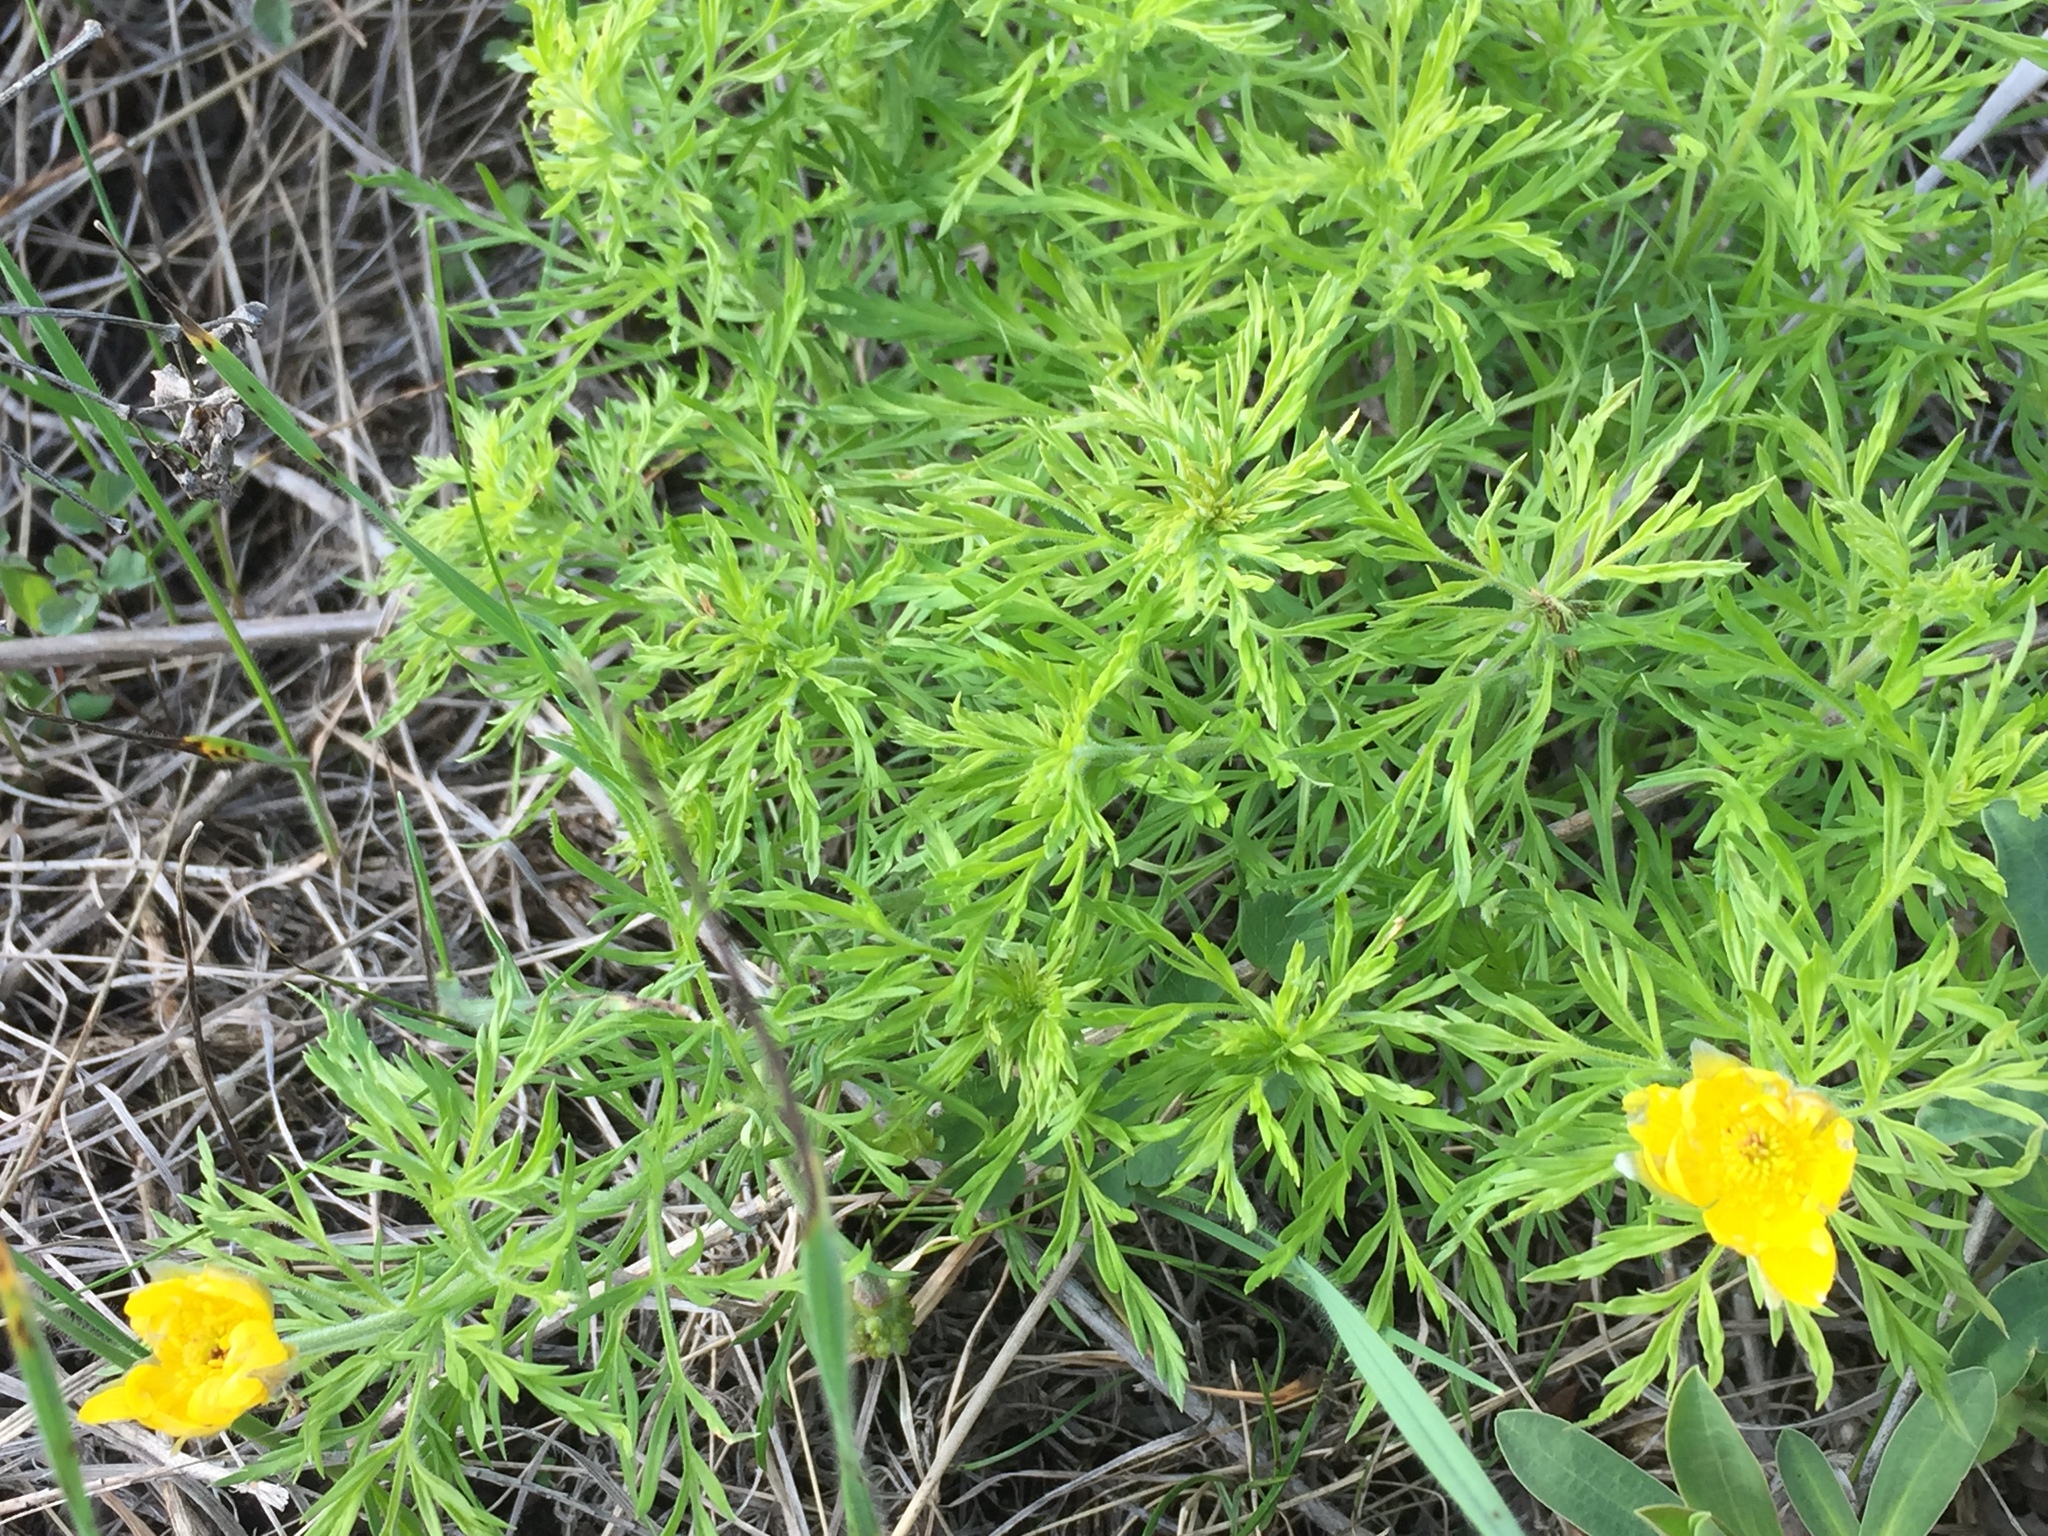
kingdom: Plantae
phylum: Tracheophyta
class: Magnoliopsida
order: Ranunculales
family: Ranunculaceae
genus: Adonis
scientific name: Adonis volgensis
